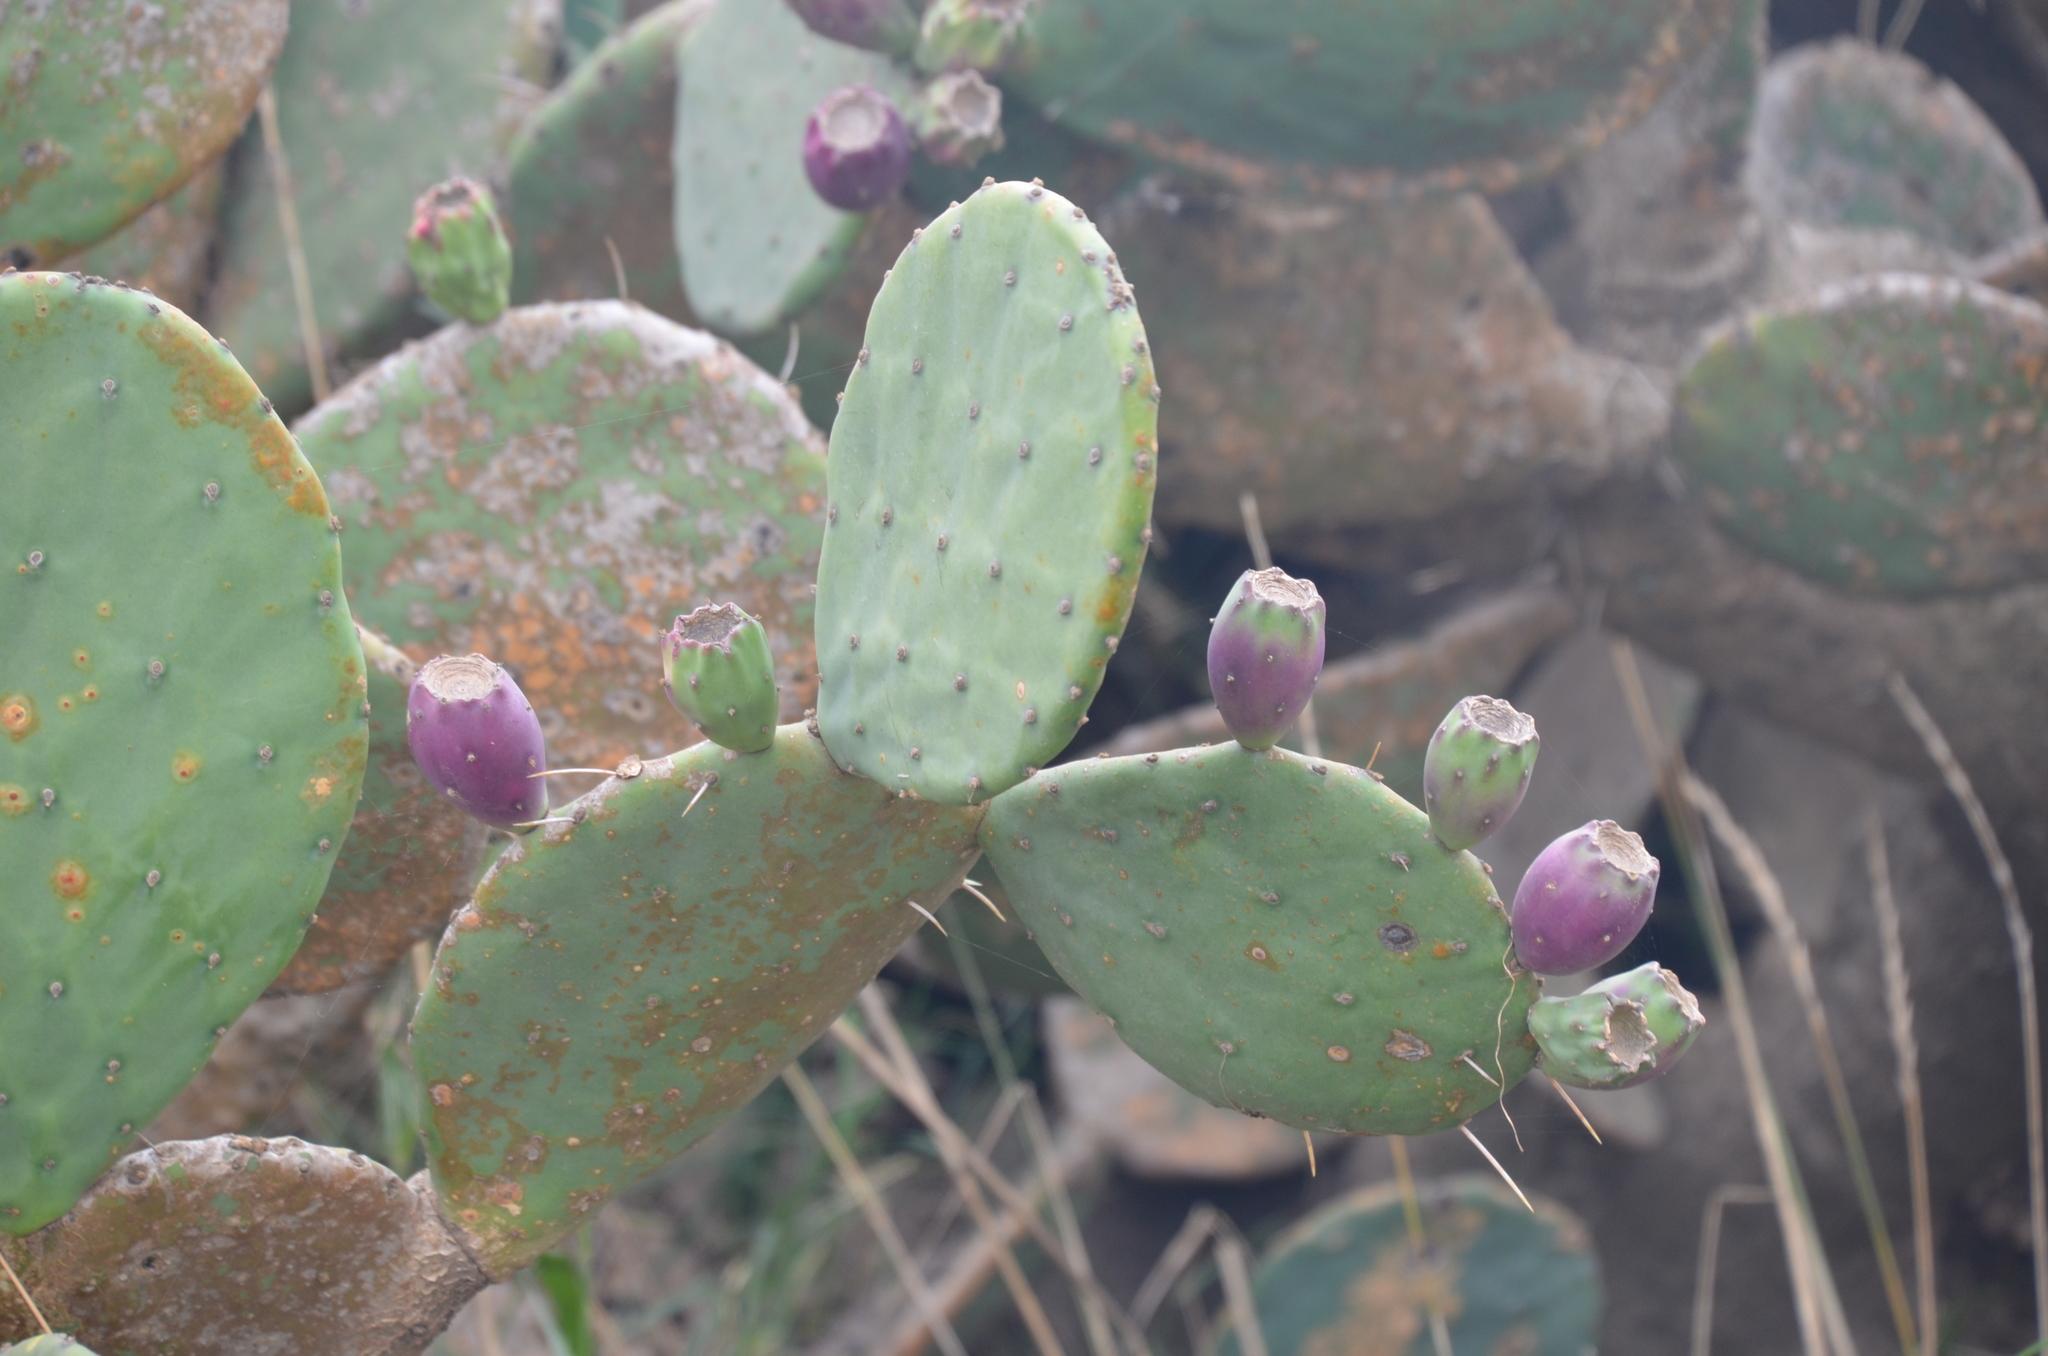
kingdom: Plantae
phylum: Tracheophyta
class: Magnoliopsida
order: Caryophyllales
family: Cactaceae
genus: Opuntia
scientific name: Opuntia megapotamica
